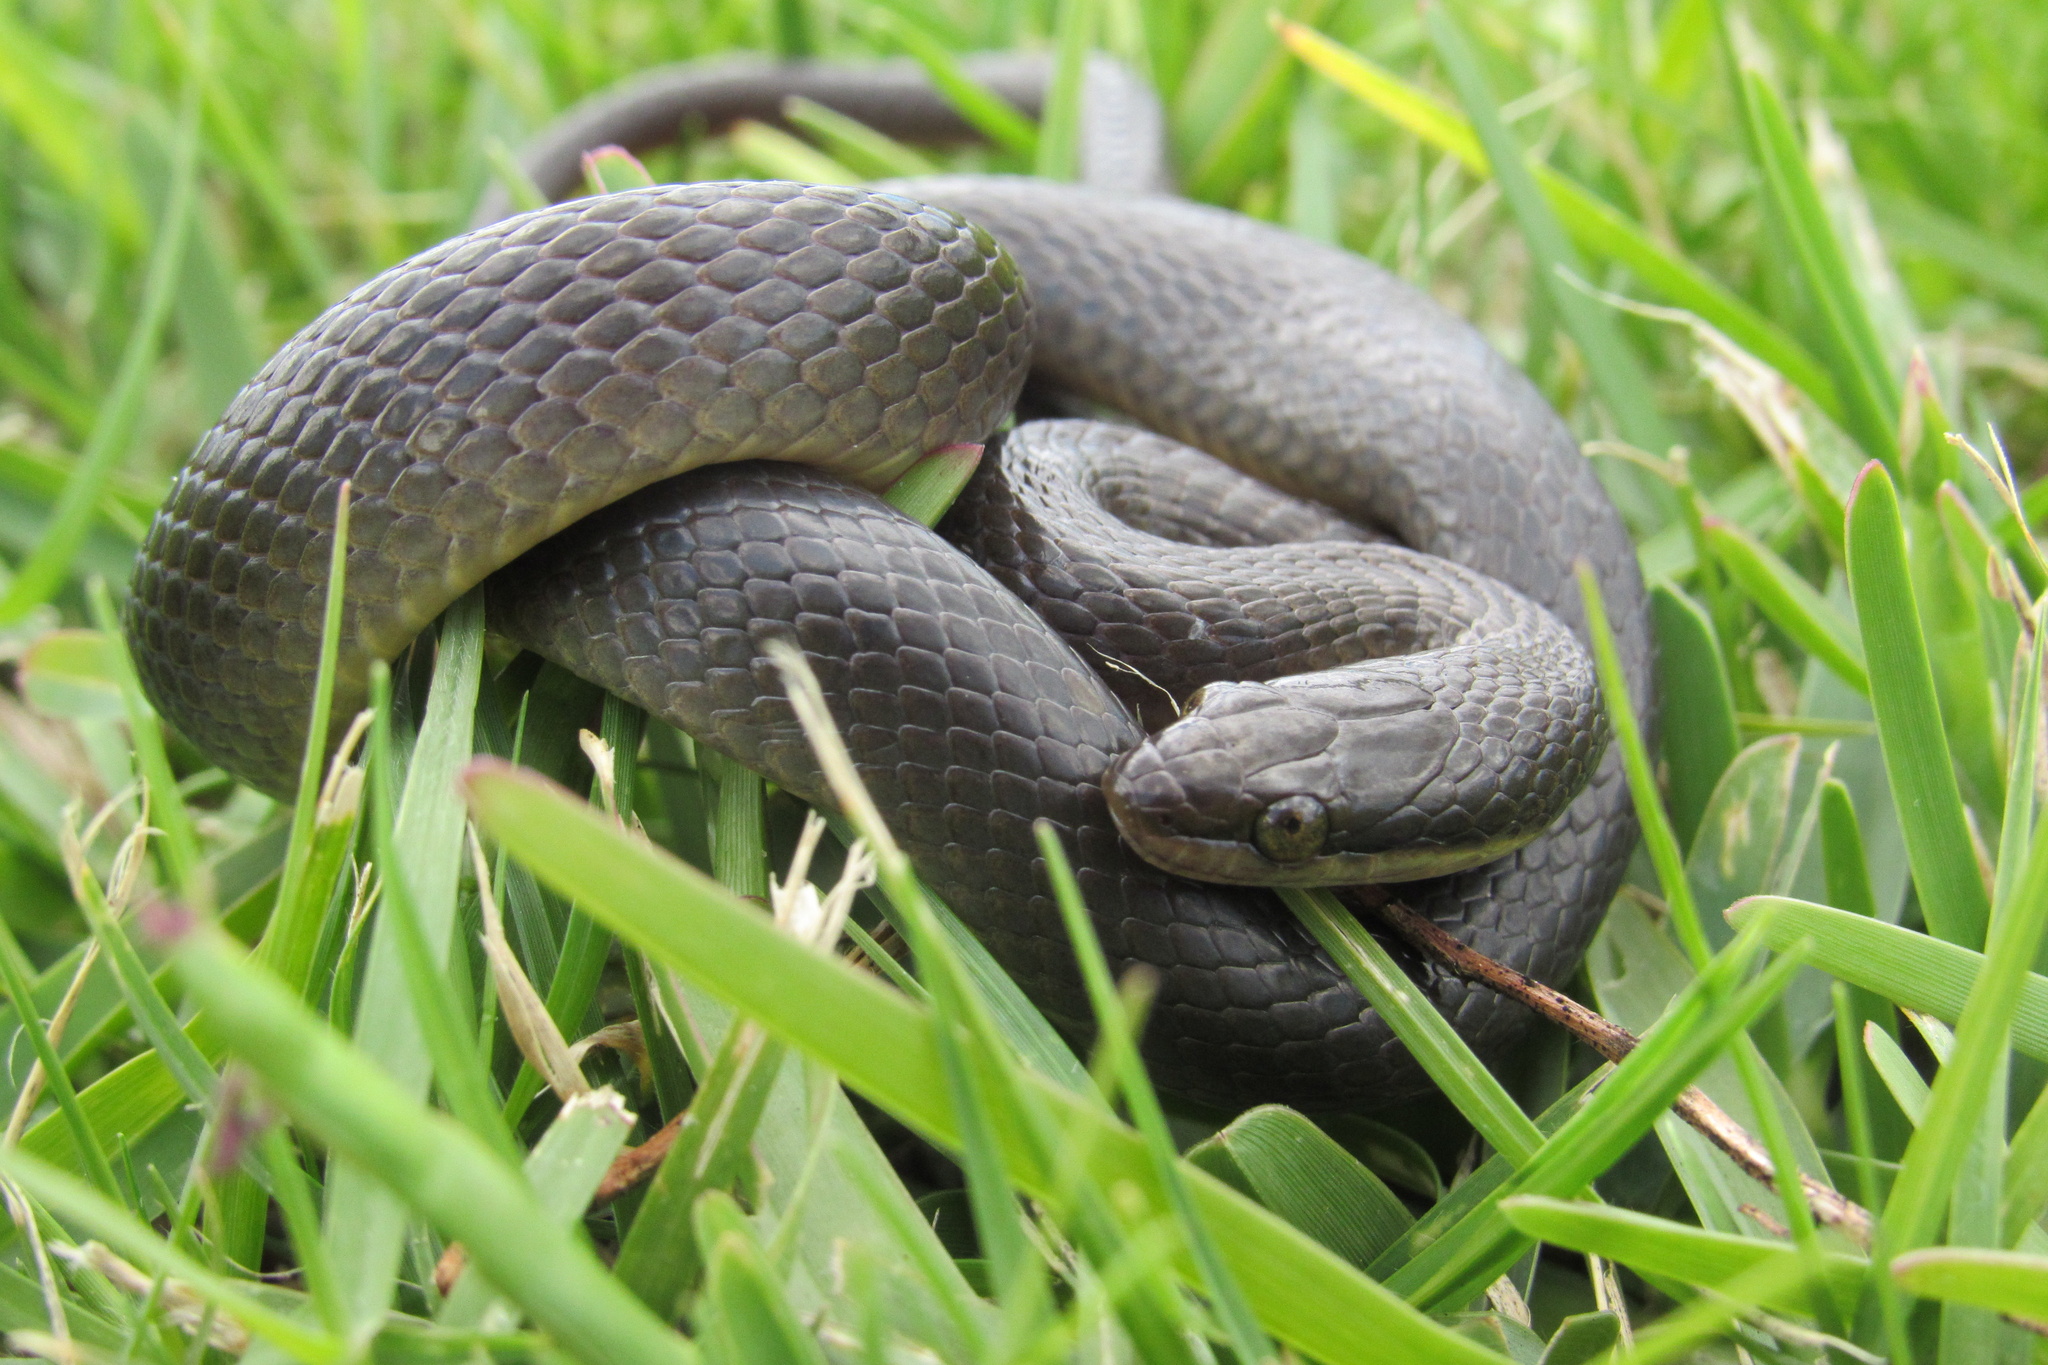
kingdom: Animalia
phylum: Chordata
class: Squamata
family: Lamprophiidae
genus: Lycodonomorphus
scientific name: Lycodonomorphus rufulus
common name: Brown water snake
